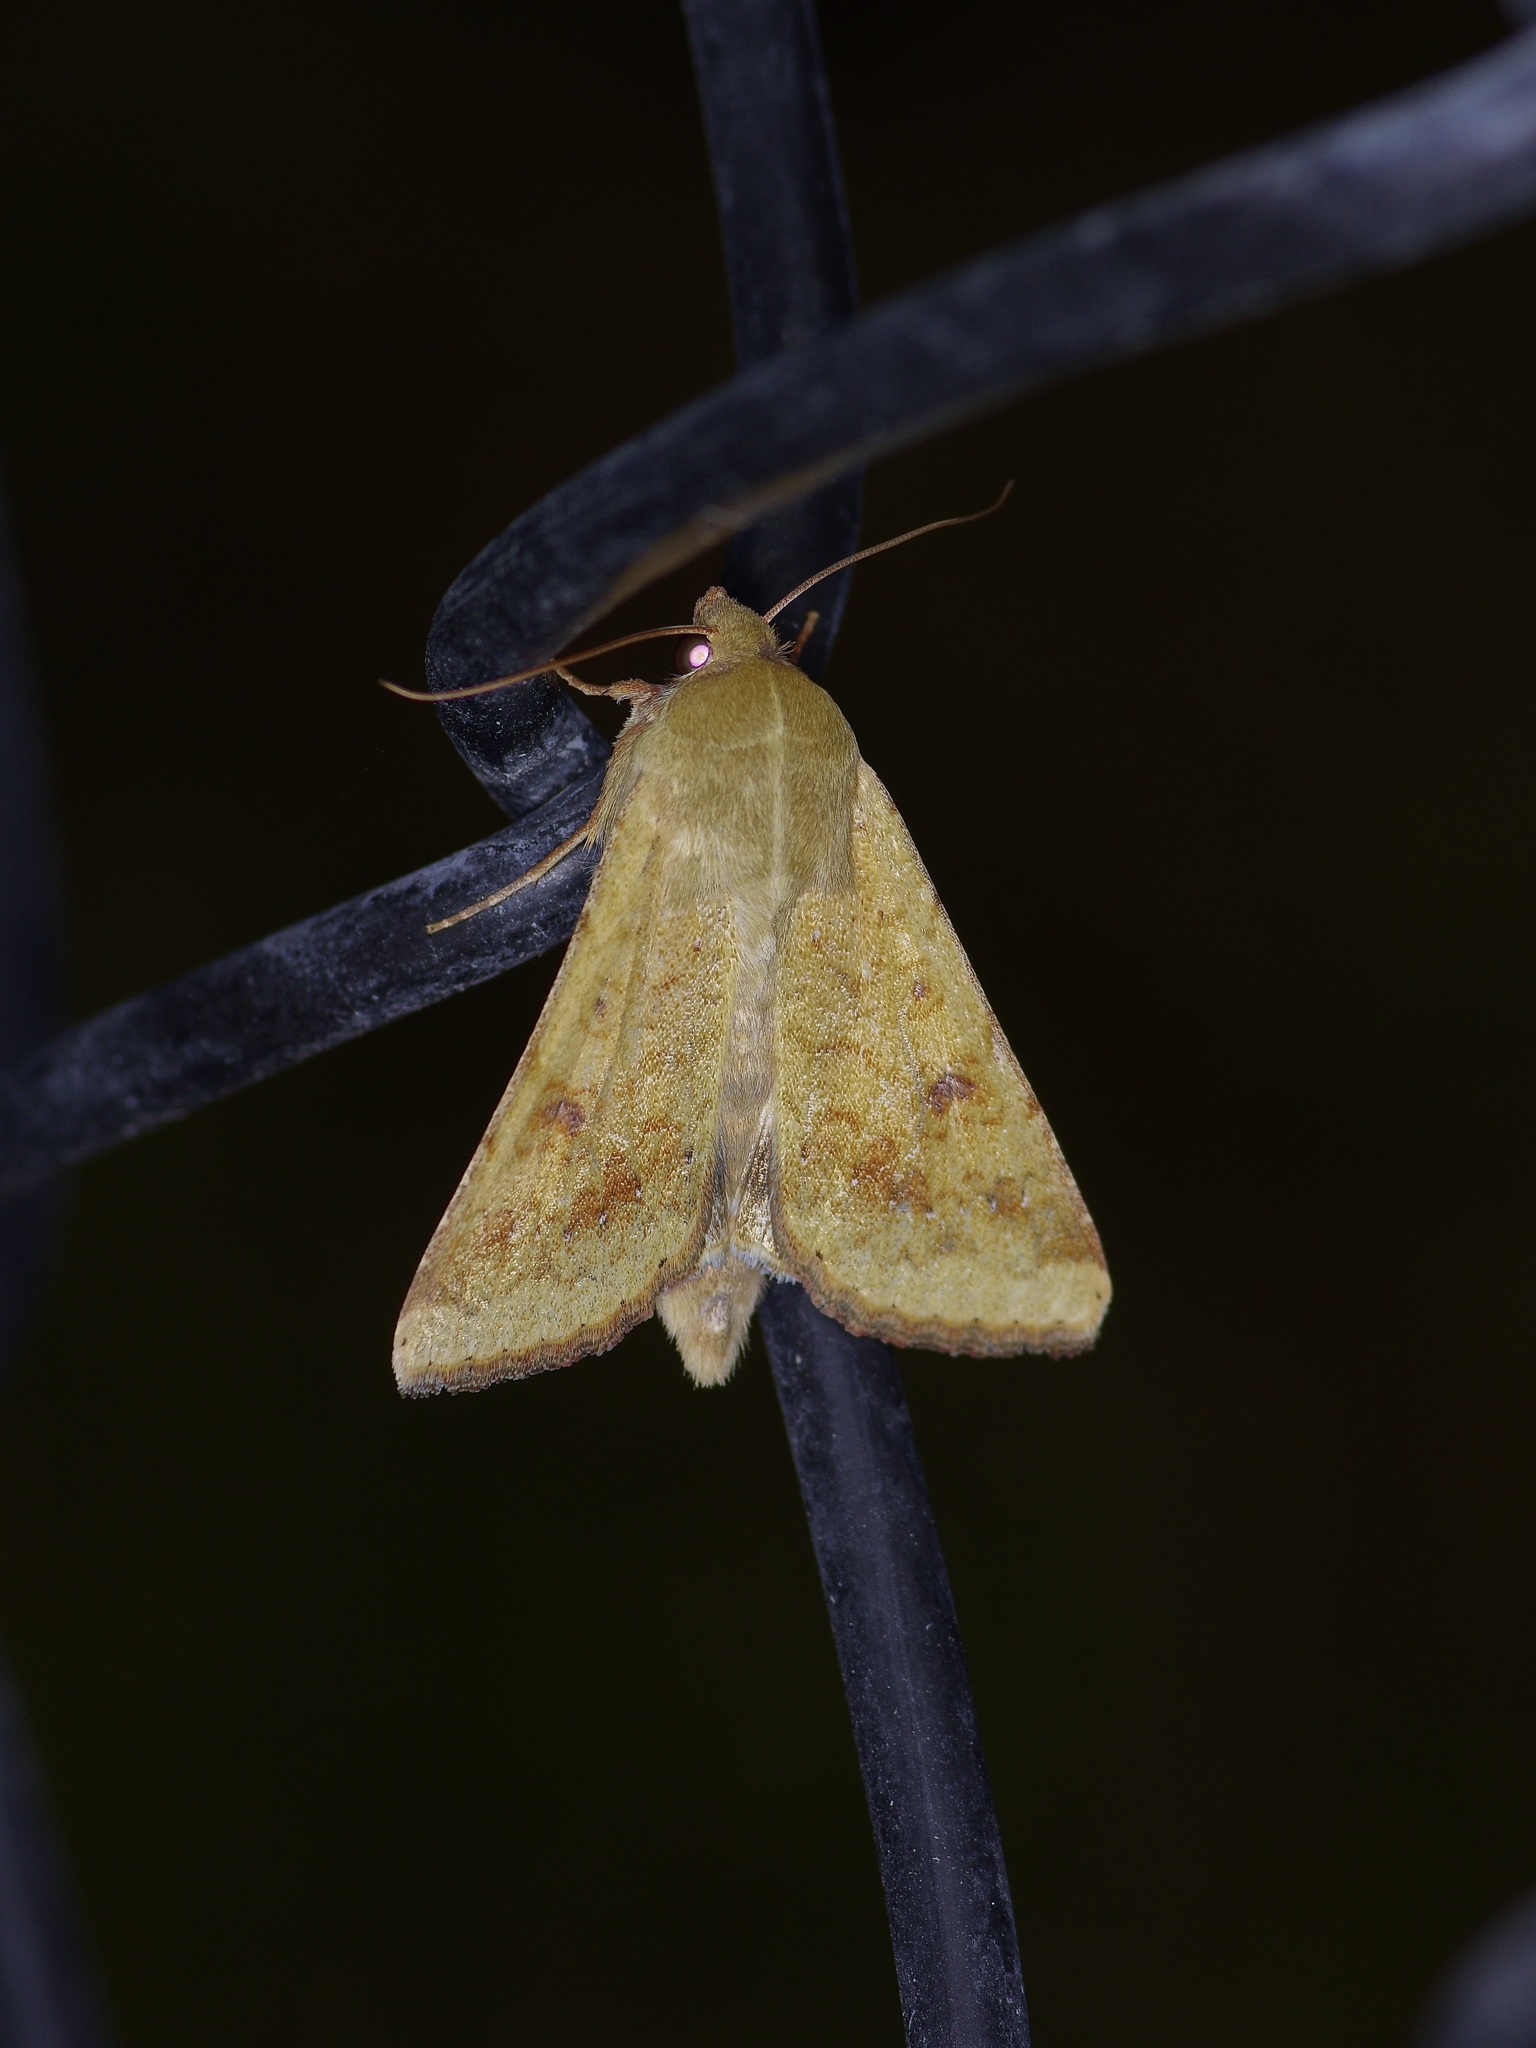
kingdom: Animalia
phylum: Arthropoda
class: Insecta
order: Lepidoptera
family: Noctuidae
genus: Helicoverpa
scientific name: Helicoverpa zea
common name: Bollworm
